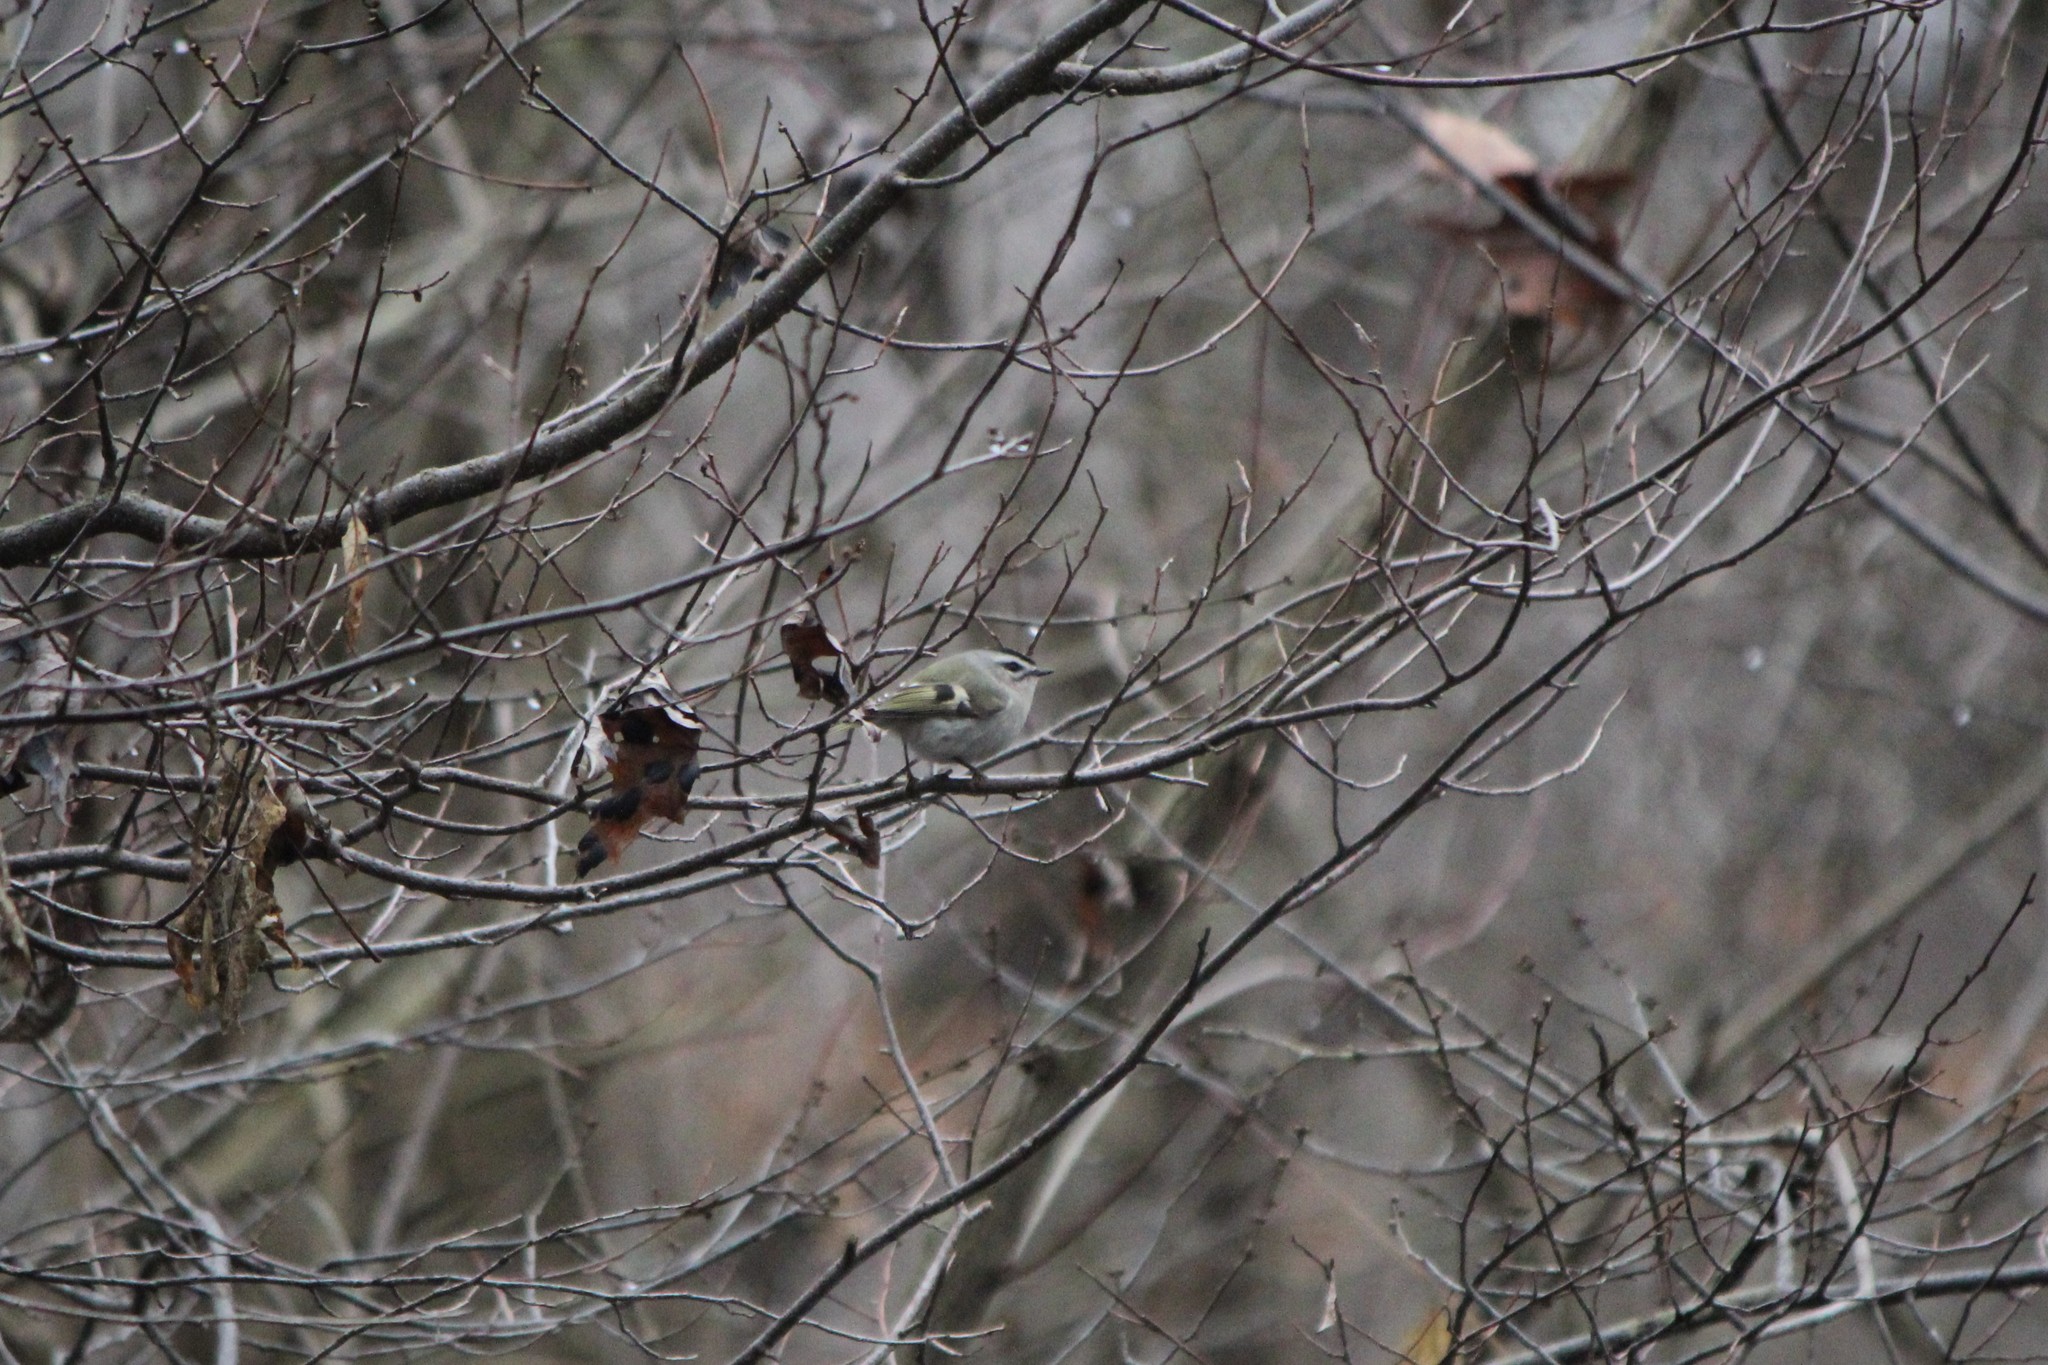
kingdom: Animalia
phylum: Chordata
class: Aves
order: Passeriformes
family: Regulidae
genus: Regulus
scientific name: Regulus satrapa
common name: Golden-crowned kinglet
